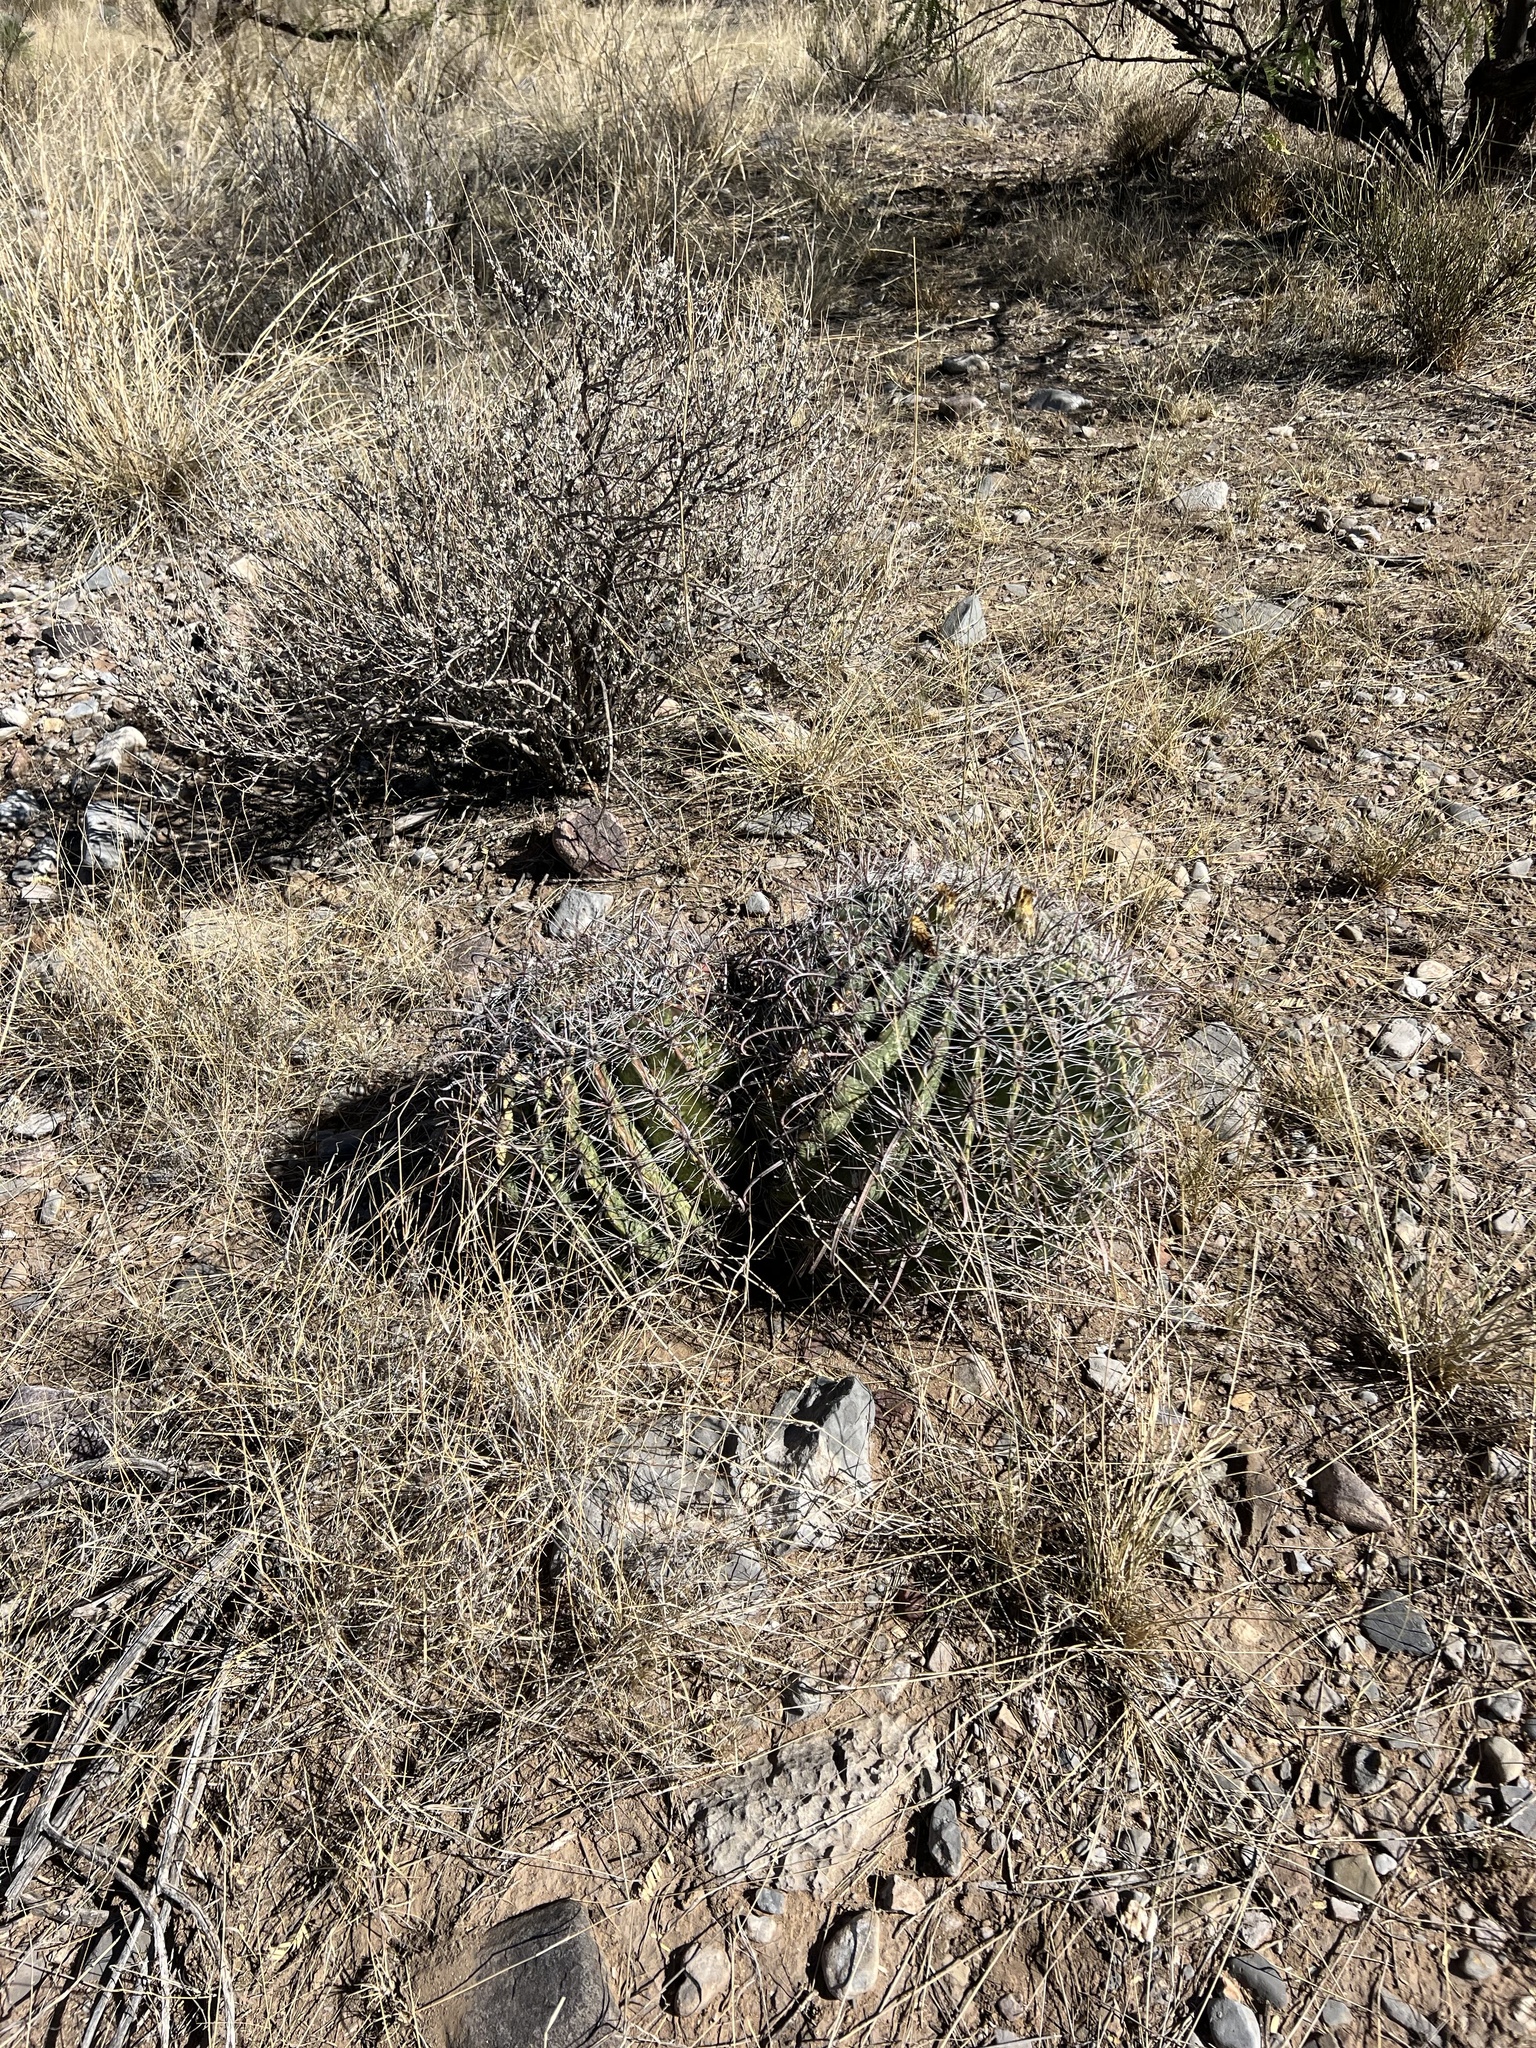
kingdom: Plantae
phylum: Tracheophyta
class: Magnoliopsida
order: Caryophyllales
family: Cactaceae
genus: Ferocactus
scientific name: Ferocactus wislizeni
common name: Candy barrel cactus
